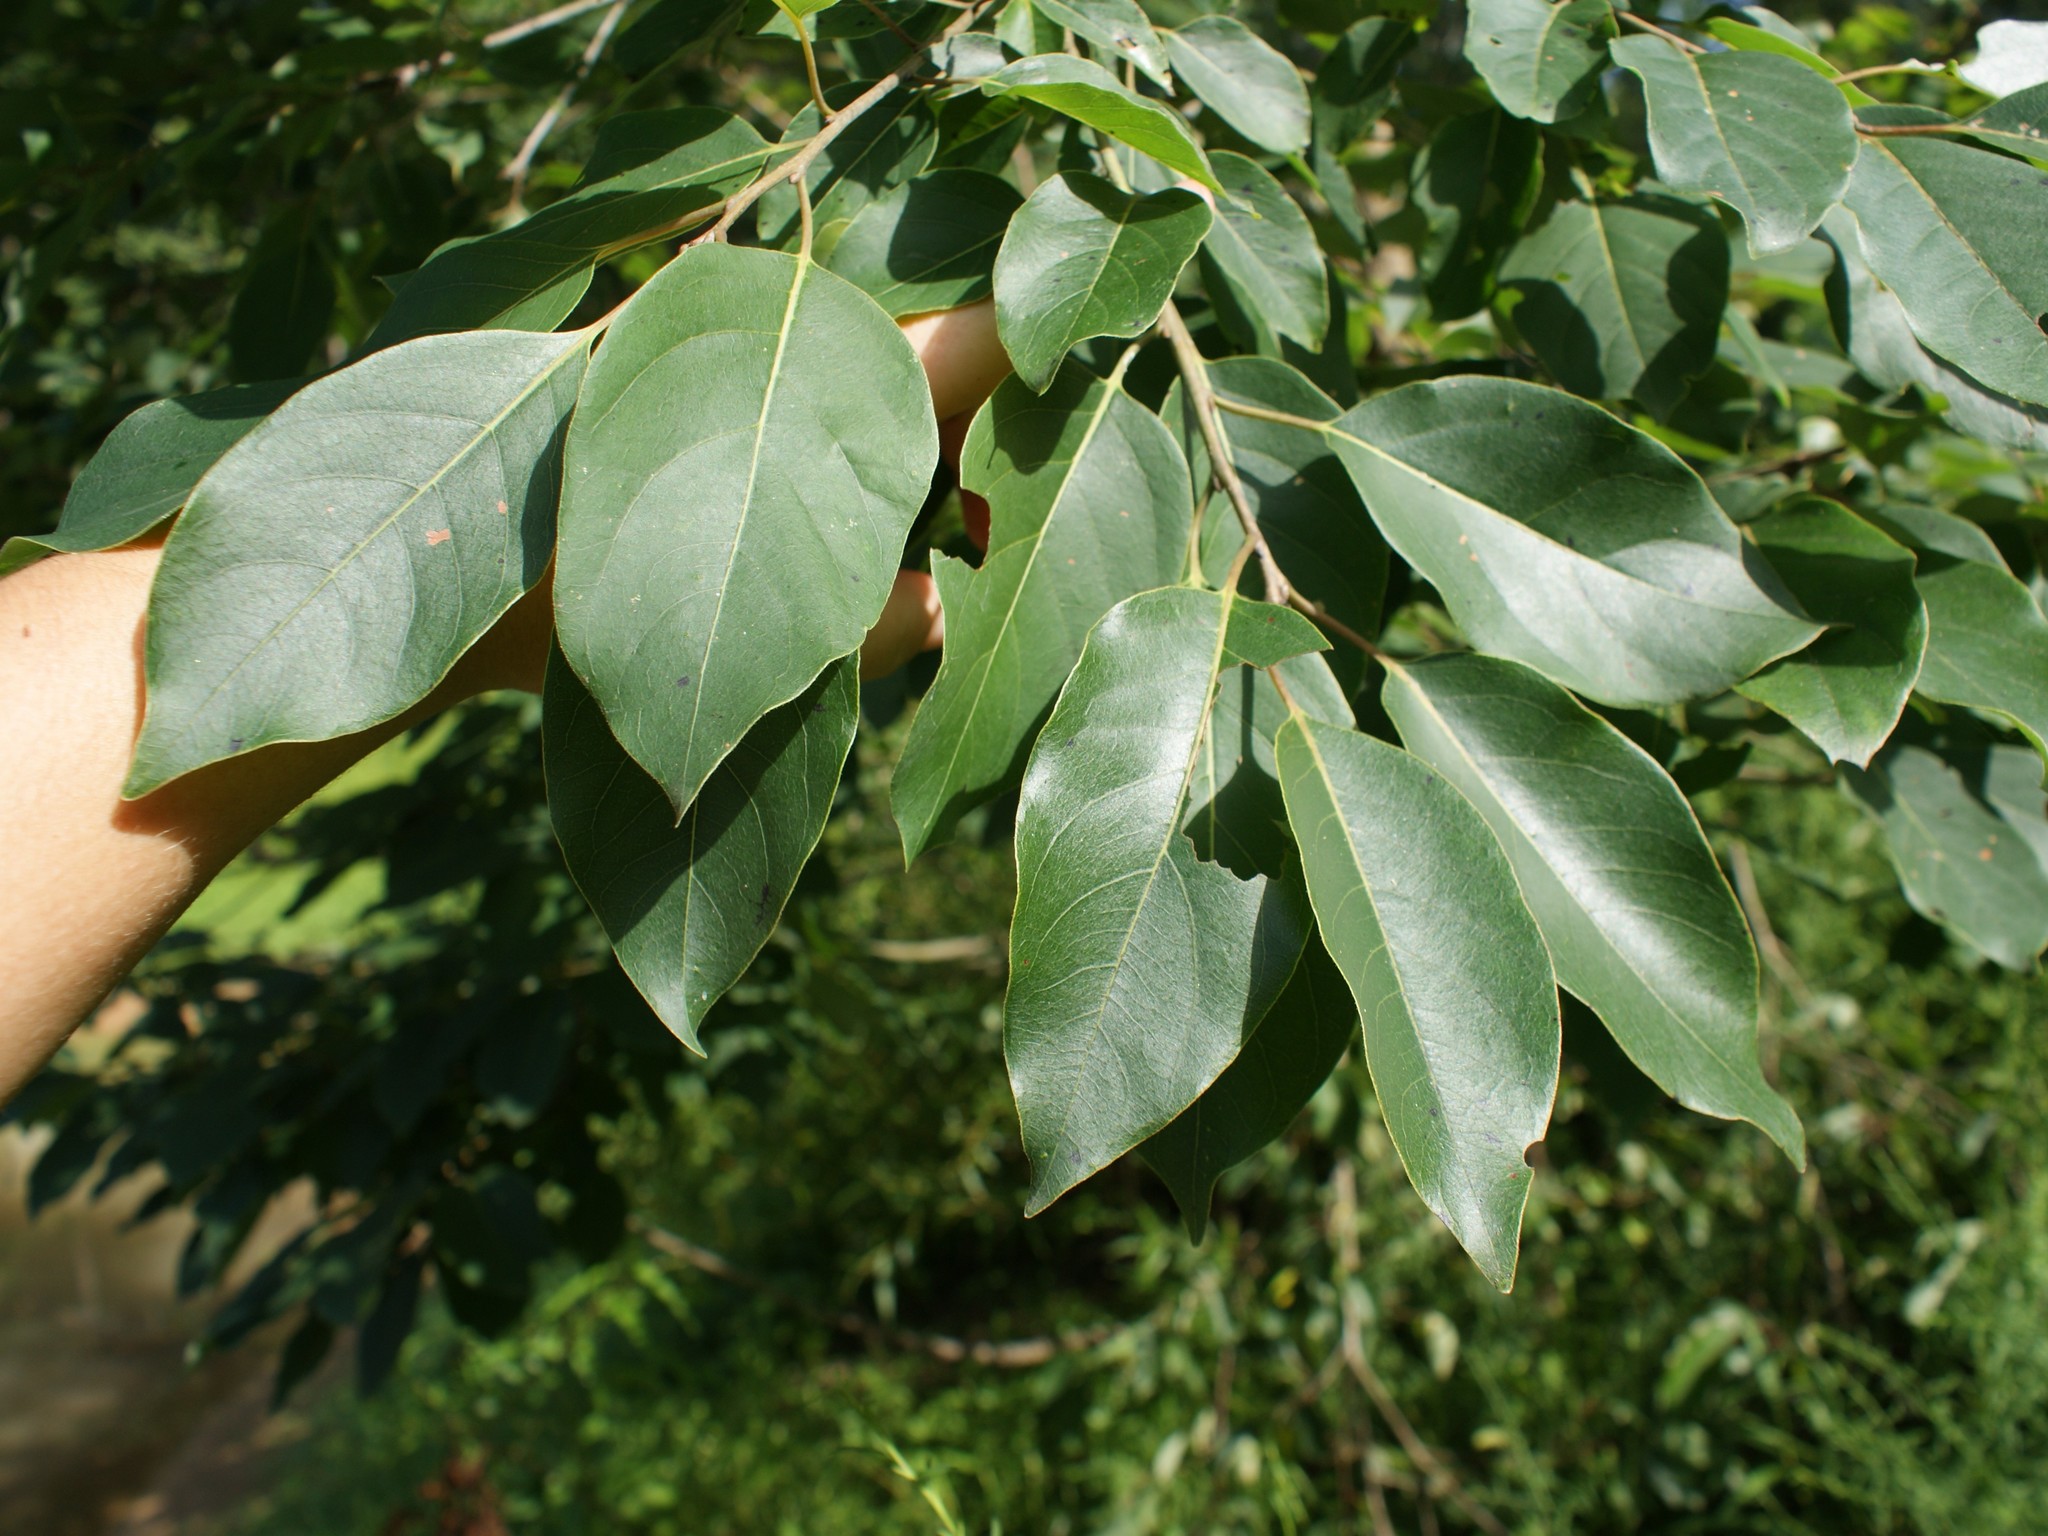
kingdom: Plantae
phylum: Tracheophyta
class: Magnoliopsida
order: Ericales
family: Ebenaceae
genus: Diospyros
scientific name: Diospyros virginiana
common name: Persimmon
